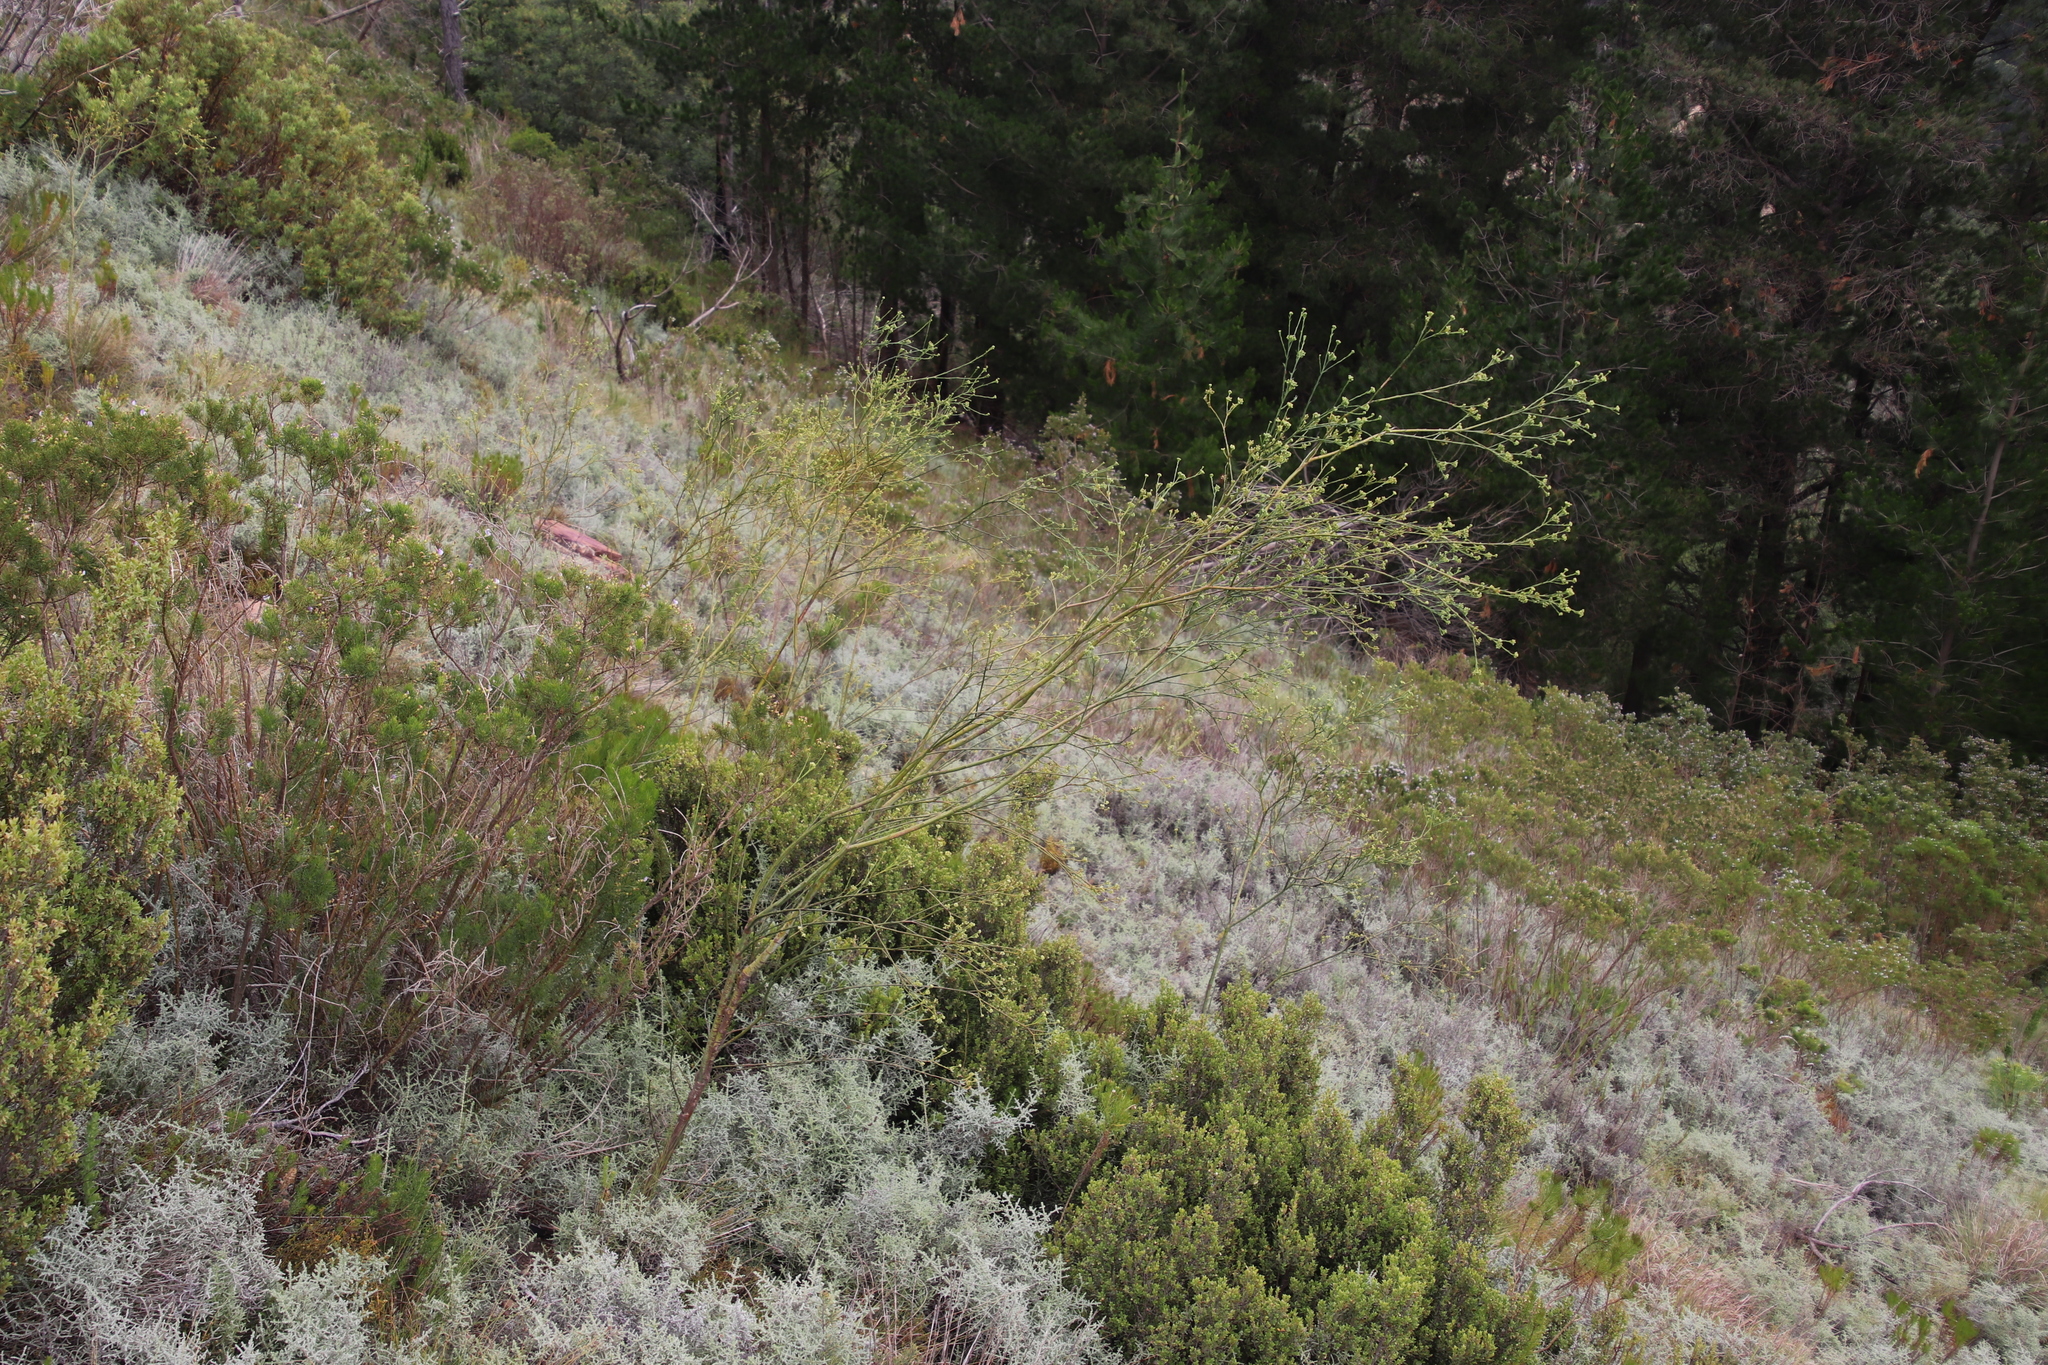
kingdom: Plantae
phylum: Tracheophyta
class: Magnoliopsida
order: Santalales
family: Thesiaceae
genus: Thesium
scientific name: Thesium strictum
